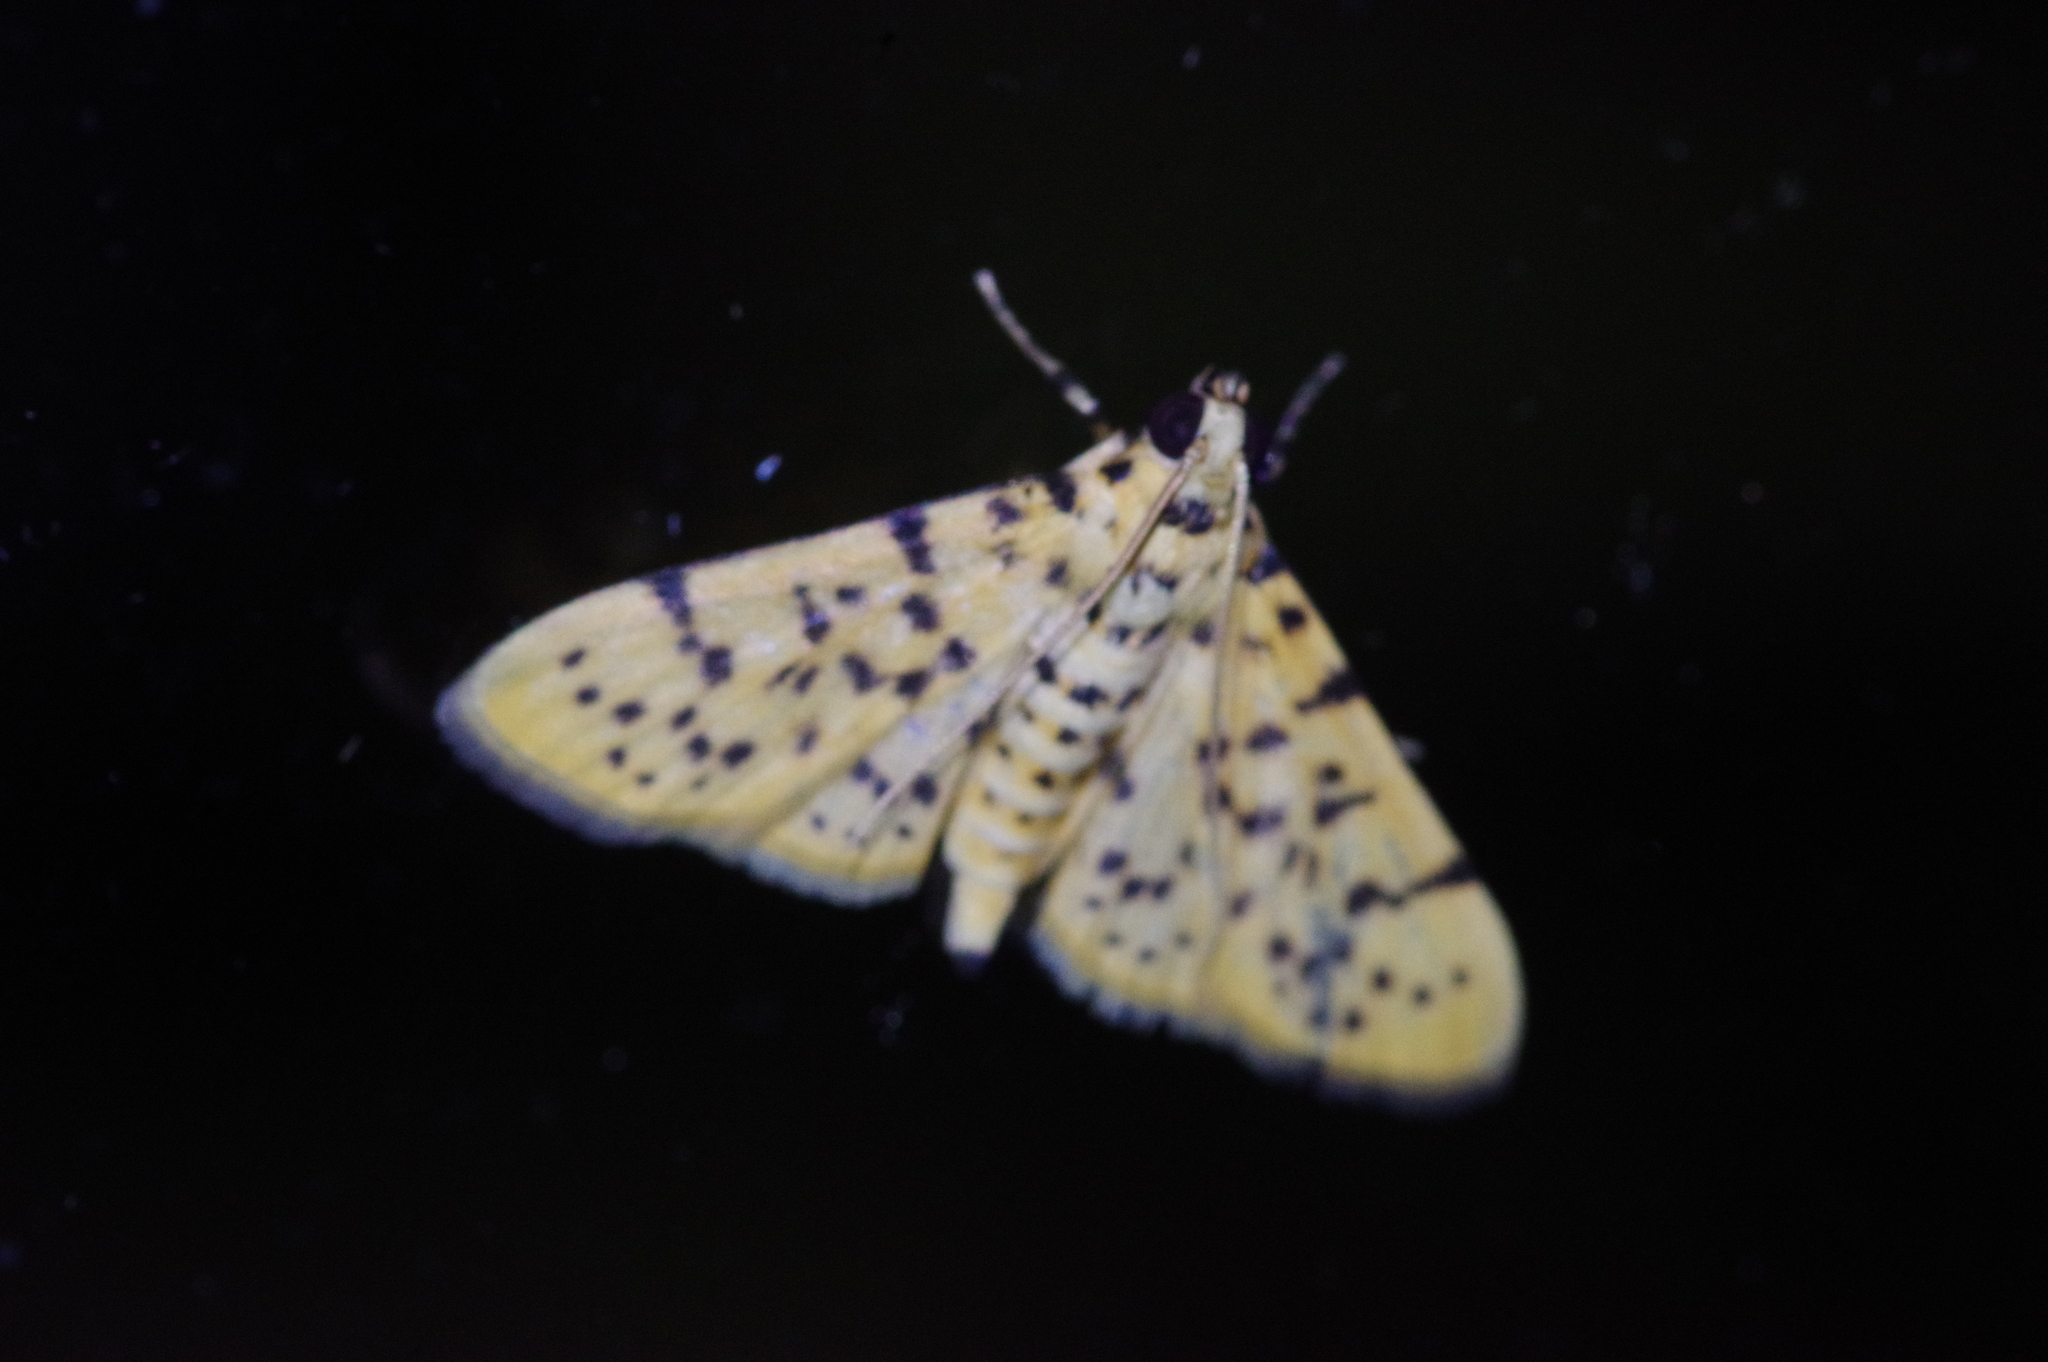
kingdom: Animalia
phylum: Arthropoda
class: Insecta
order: Lepidoptera
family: Crambidae
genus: Conogethes
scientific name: Conogethes punctiferalis
